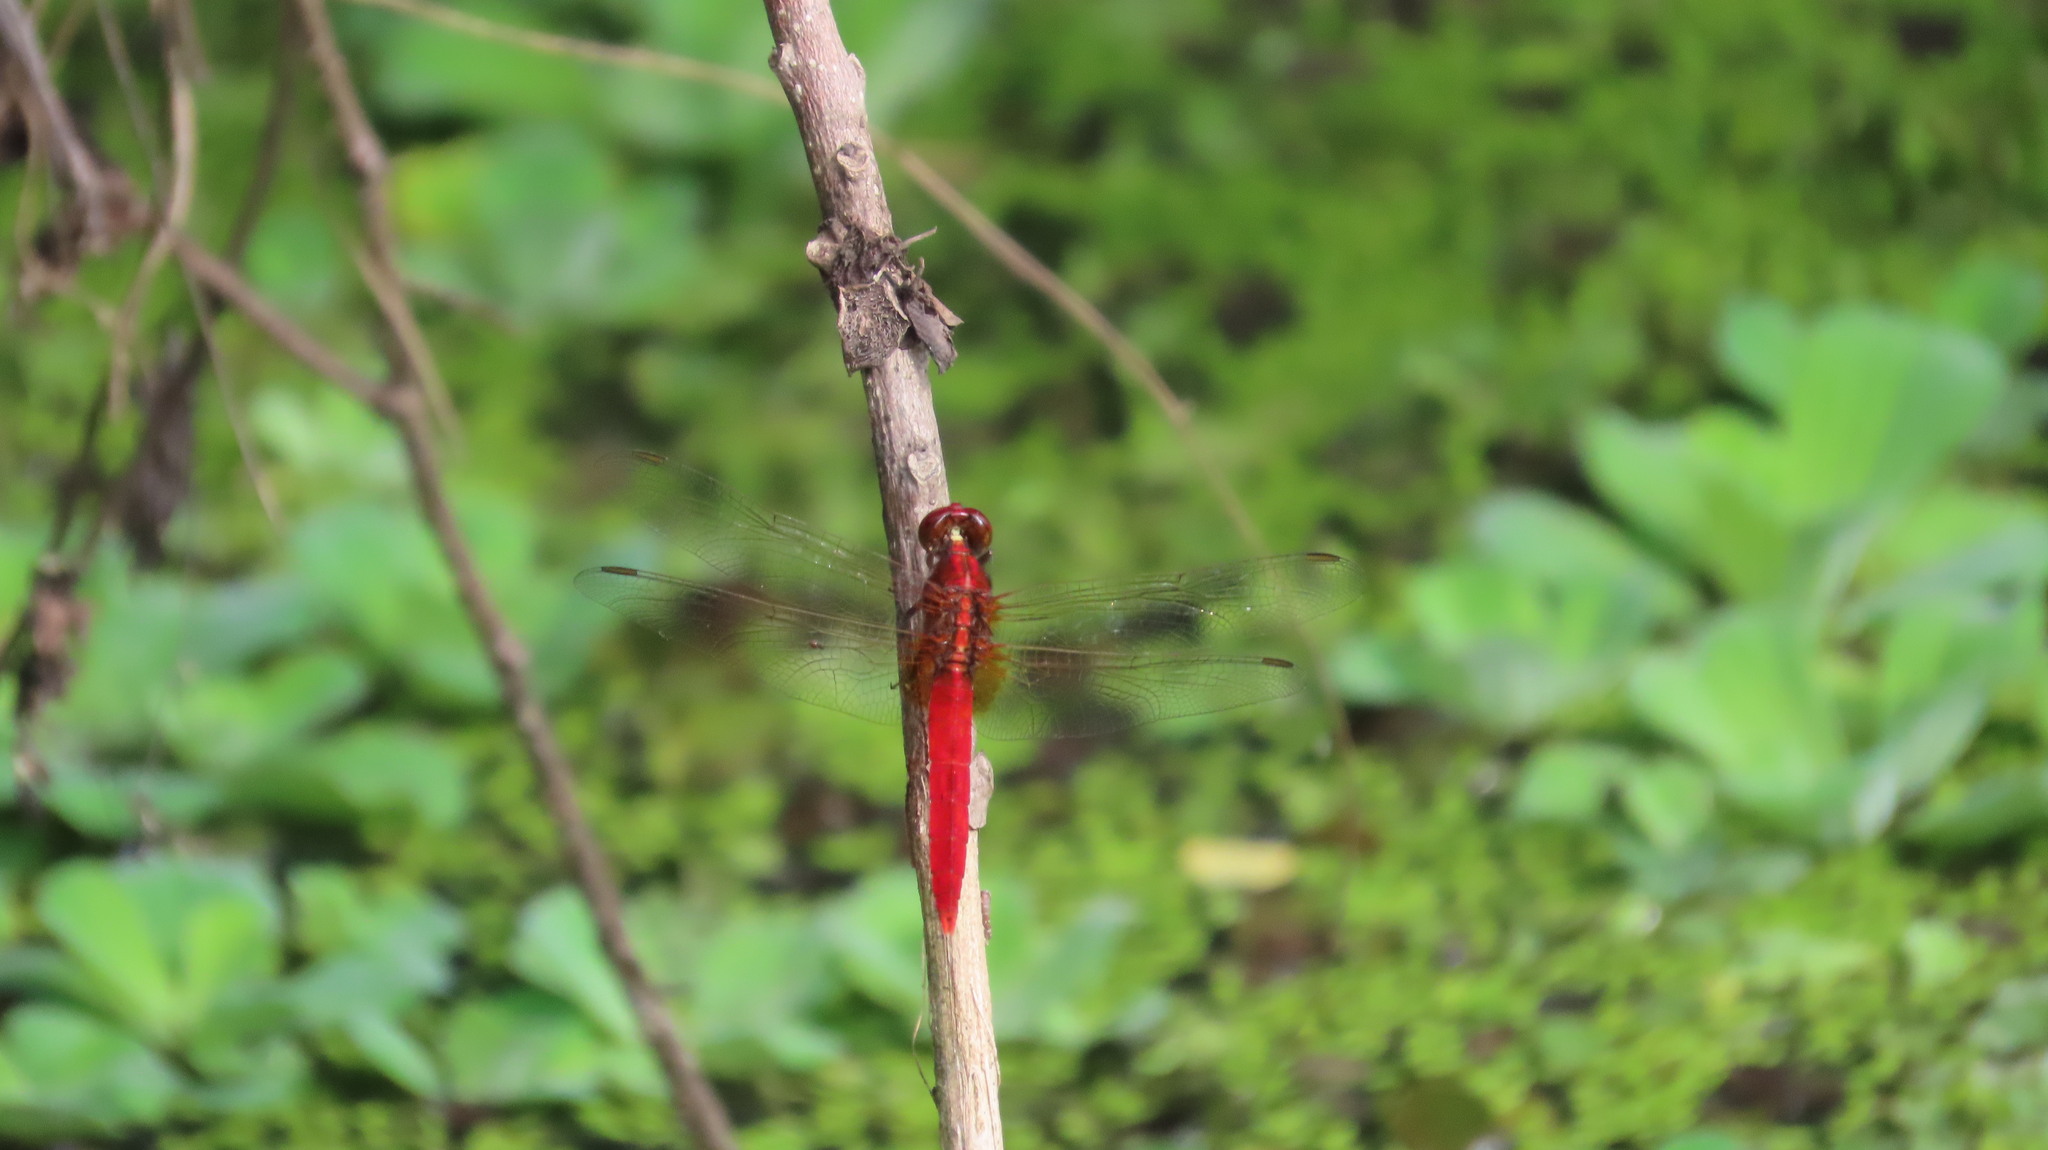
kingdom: Animalia
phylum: Arthropoda
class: Insecta
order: Odonata
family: Libellulidae
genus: Rhodothemis
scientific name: Rhodothemis rufa
